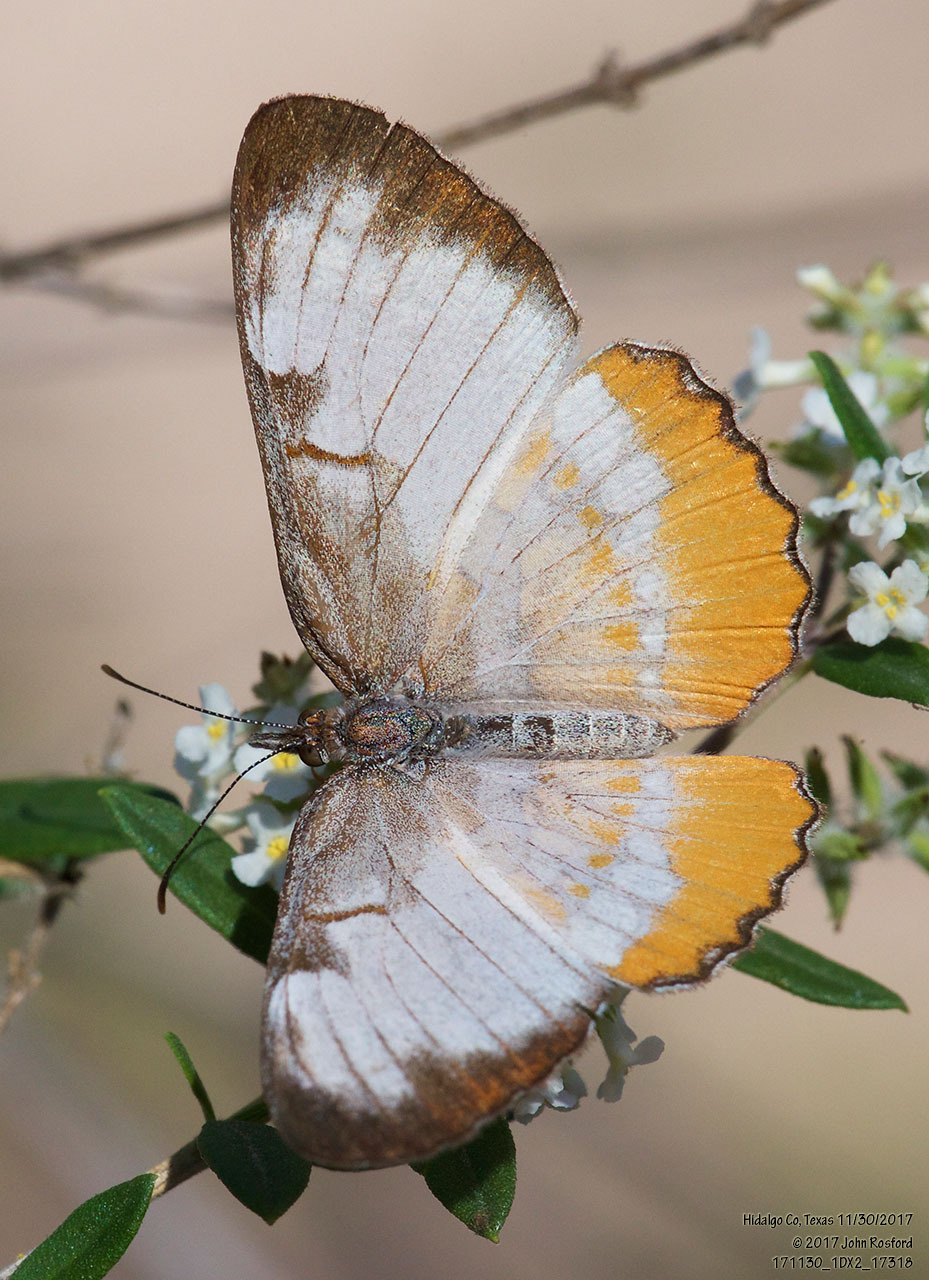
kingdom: Animalia
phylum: Arthropoda
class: Insecta
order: Lepidoptera
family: Nymphalidae
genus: Mestra
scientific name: Mestra amymone
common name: Common mestra
